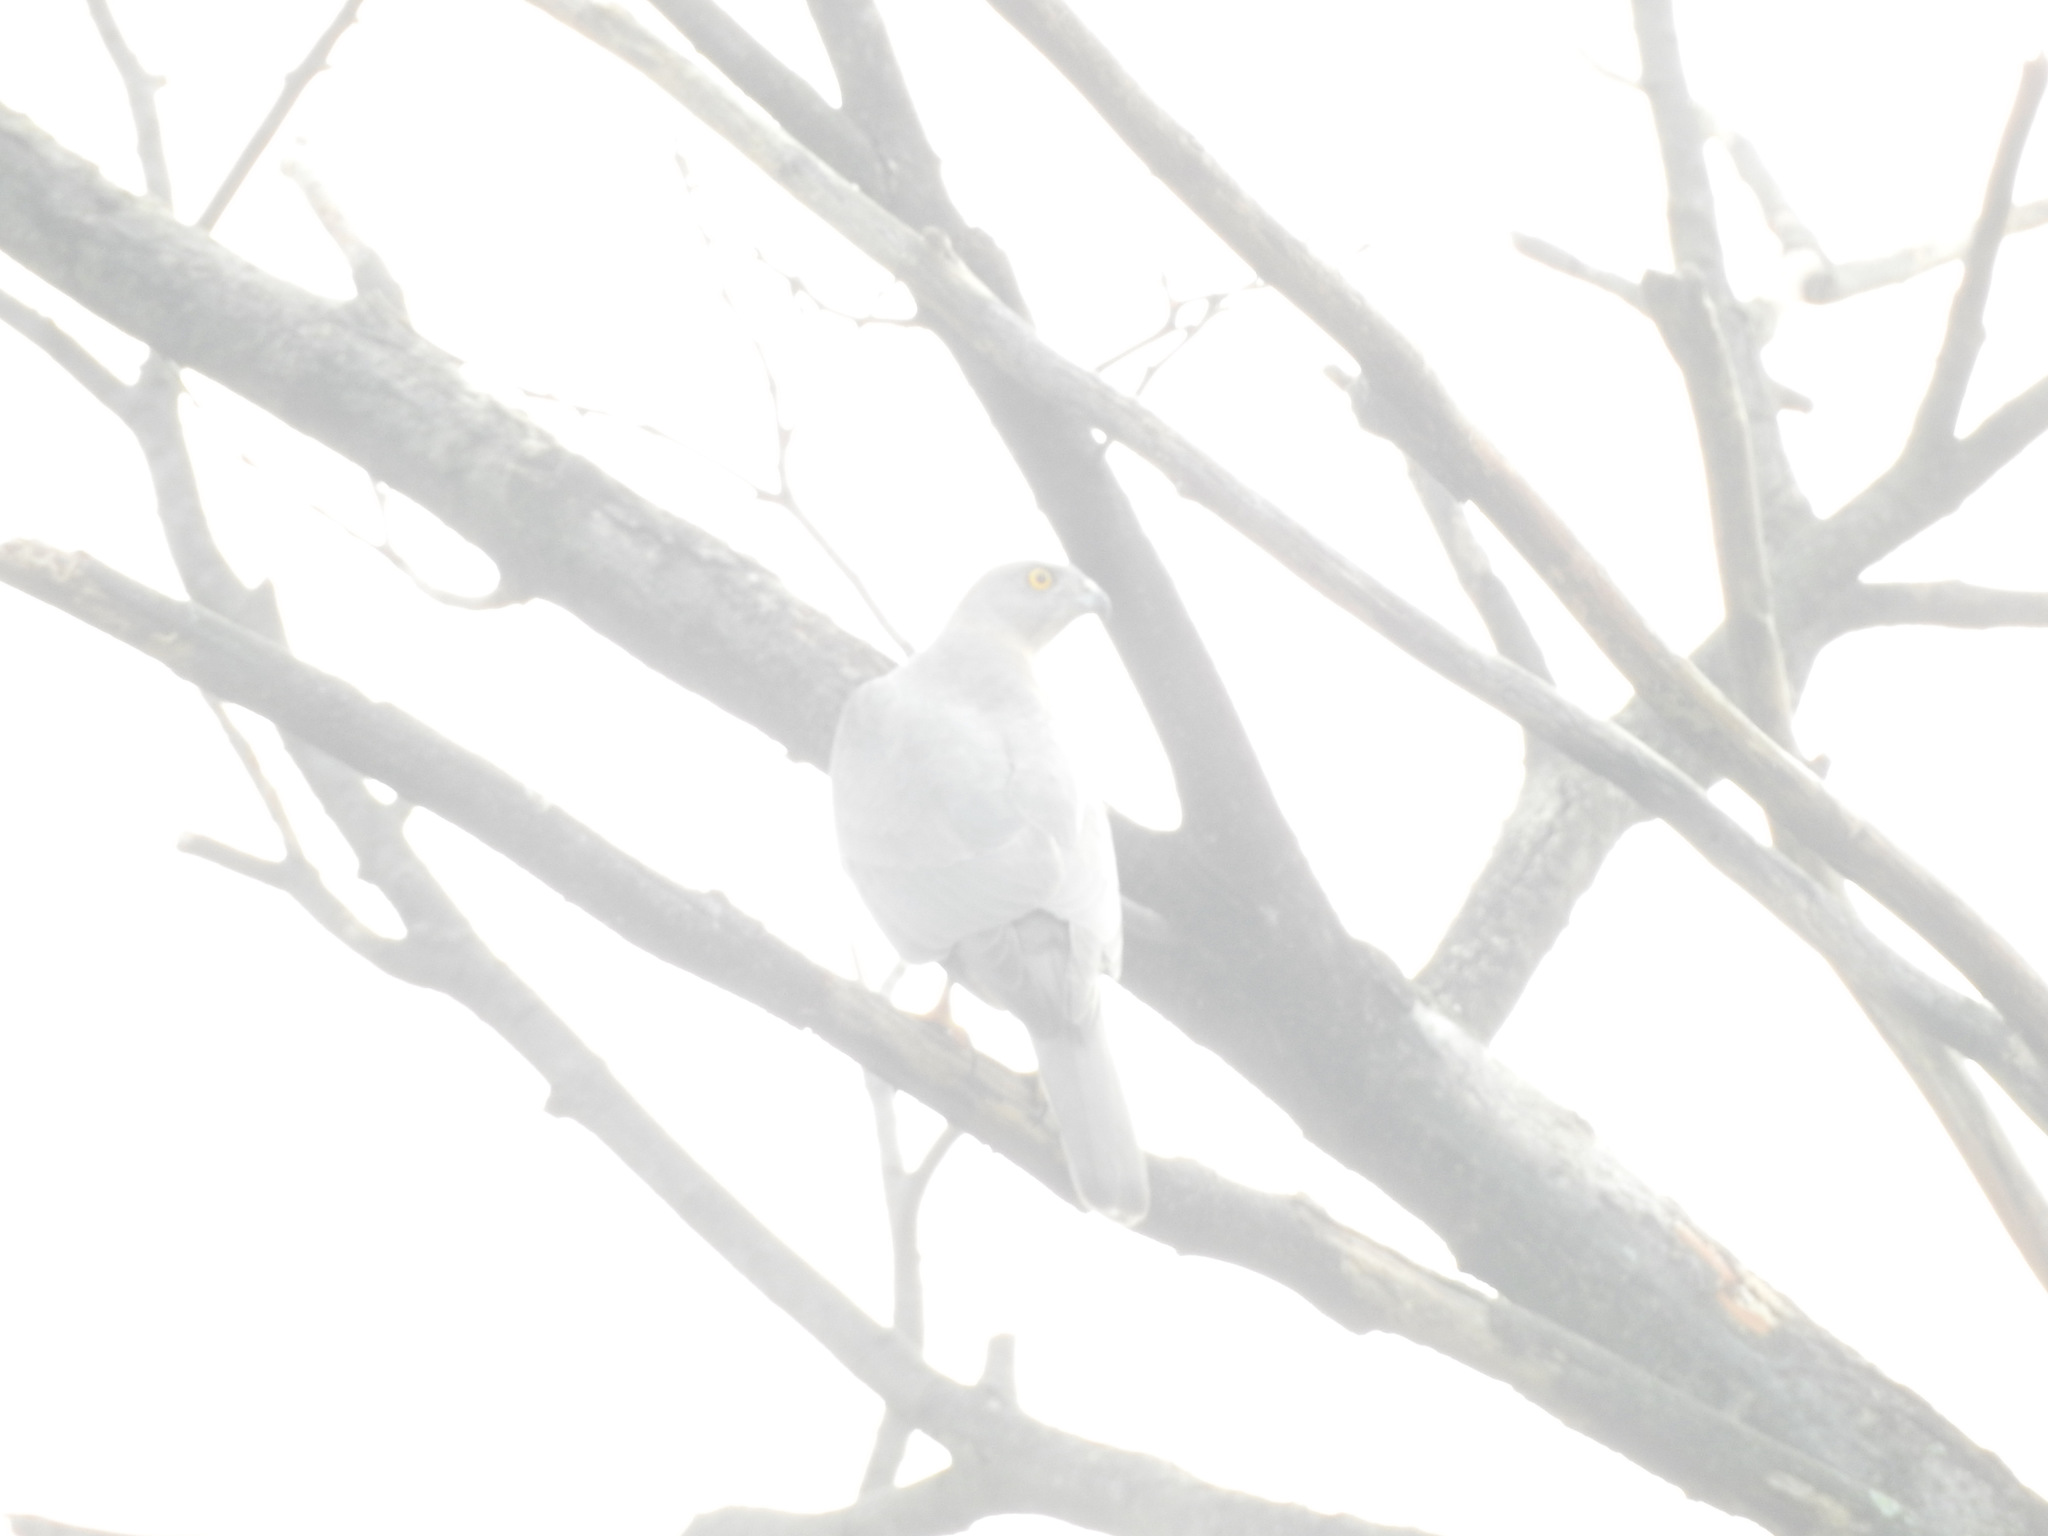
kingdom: Animalia
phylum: Chordata
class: Aves
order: Accipitriformes
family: Accipitridae
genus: Accipiter
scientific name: Accipiter badius
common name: Shikra
